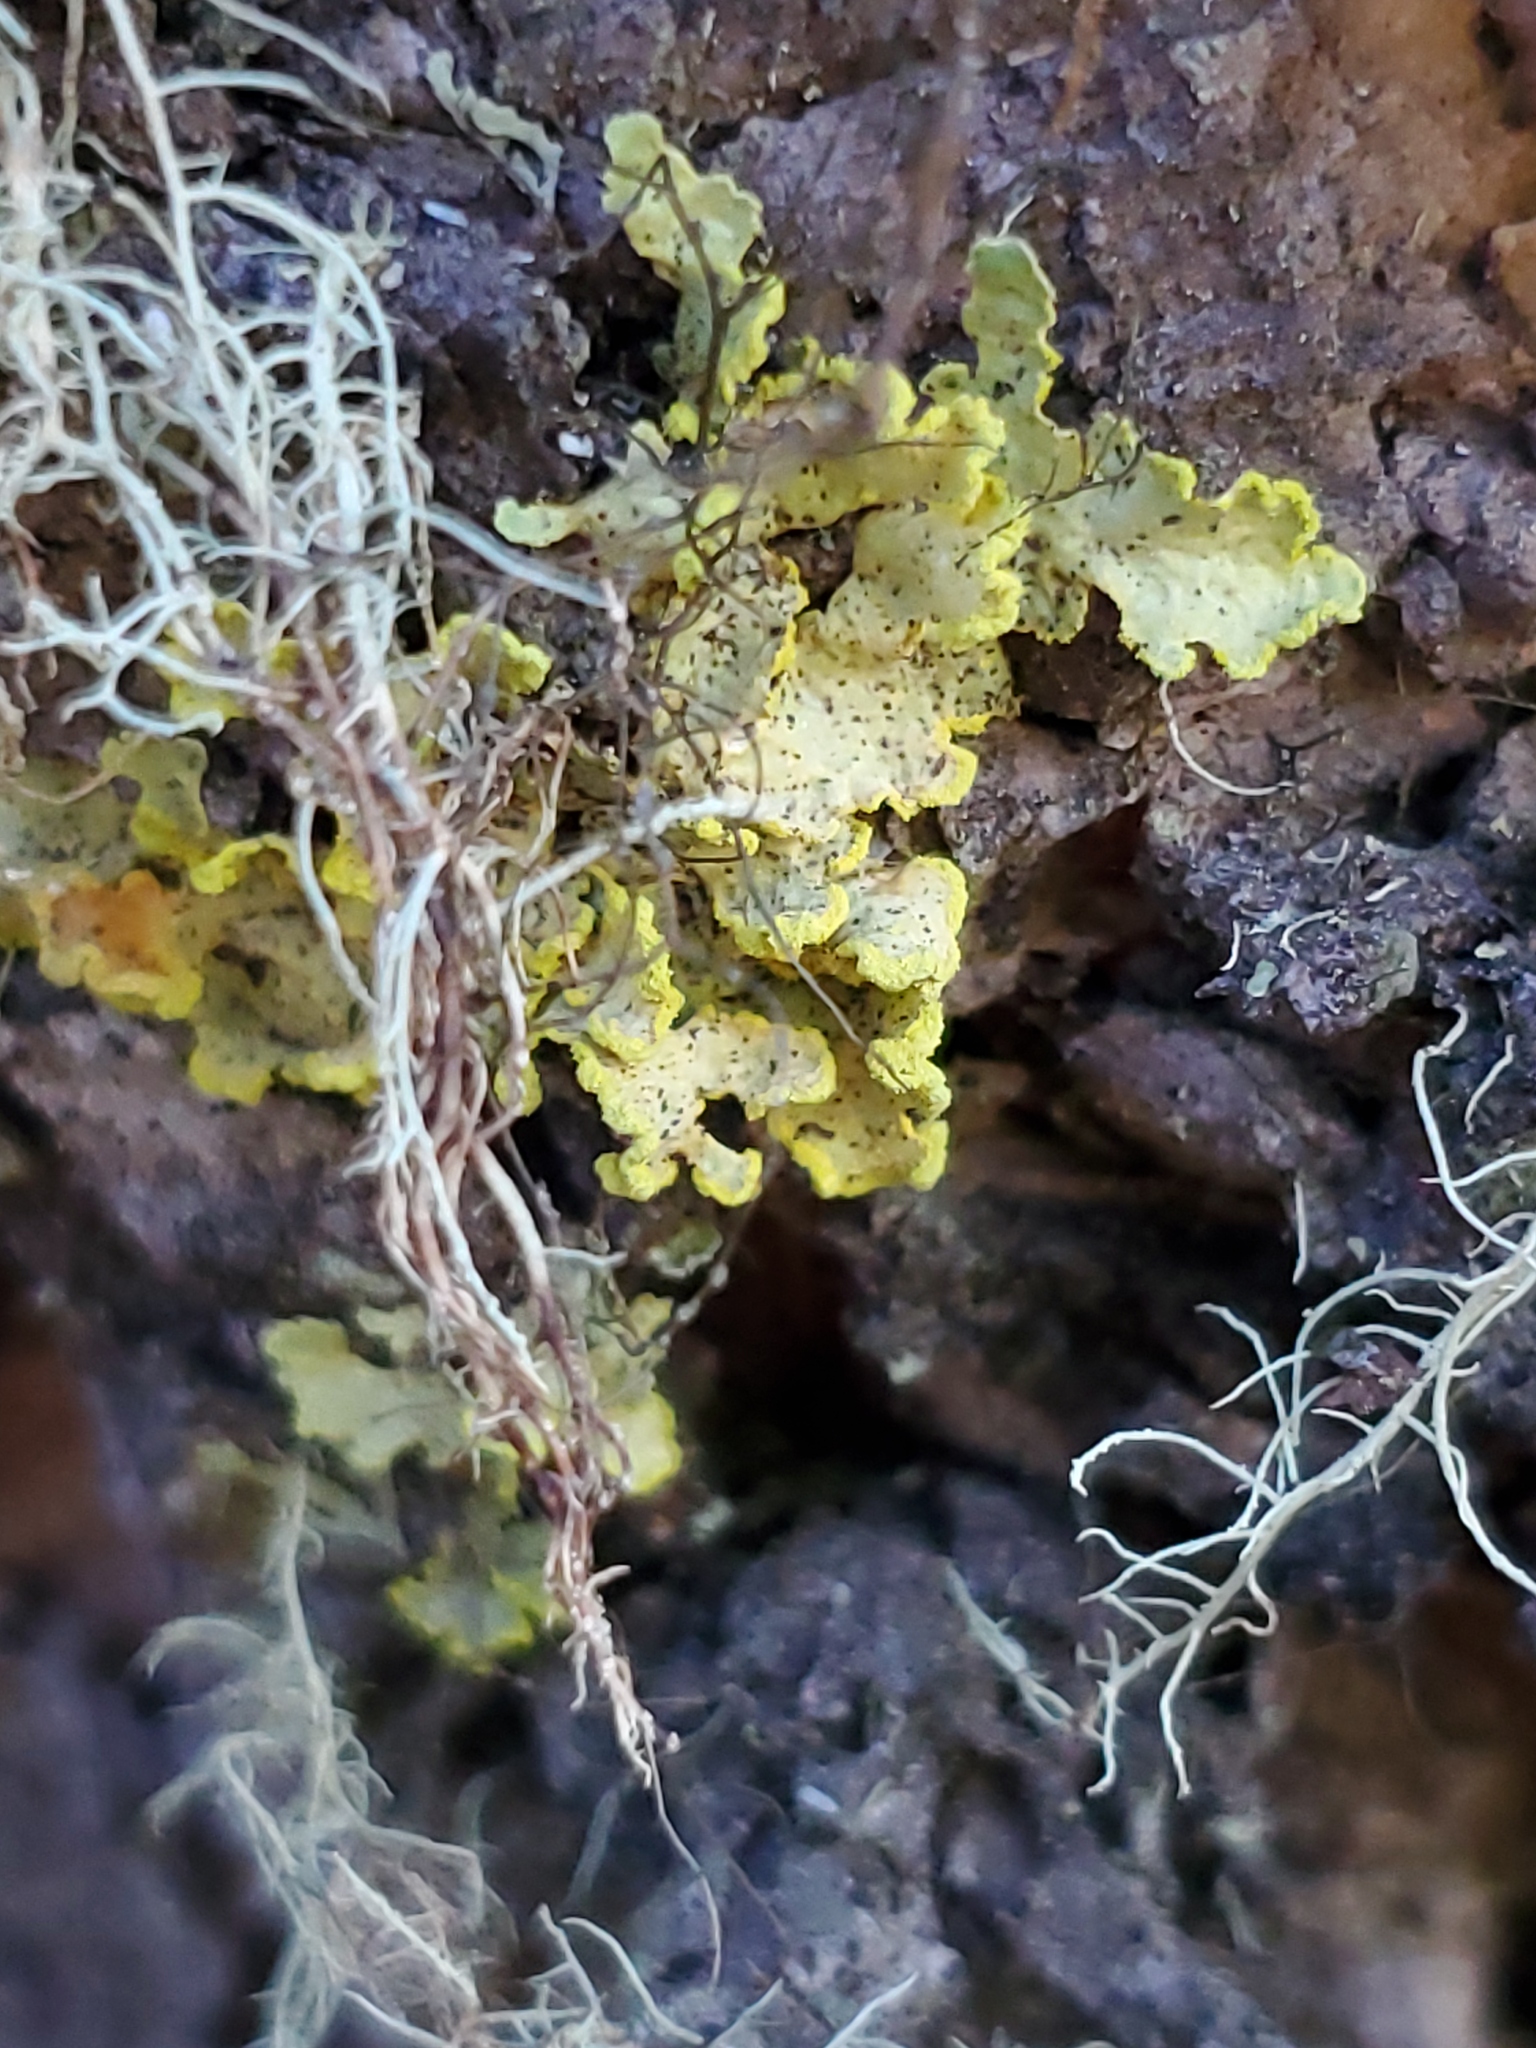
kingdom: Fungi
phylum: Ascomycota
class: Lecanoromycetes
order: Lecanorales
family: Parmeliaceae
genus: Vulpicida
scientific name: Vulpicida pinastri
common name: Powdered sunshine lichen
